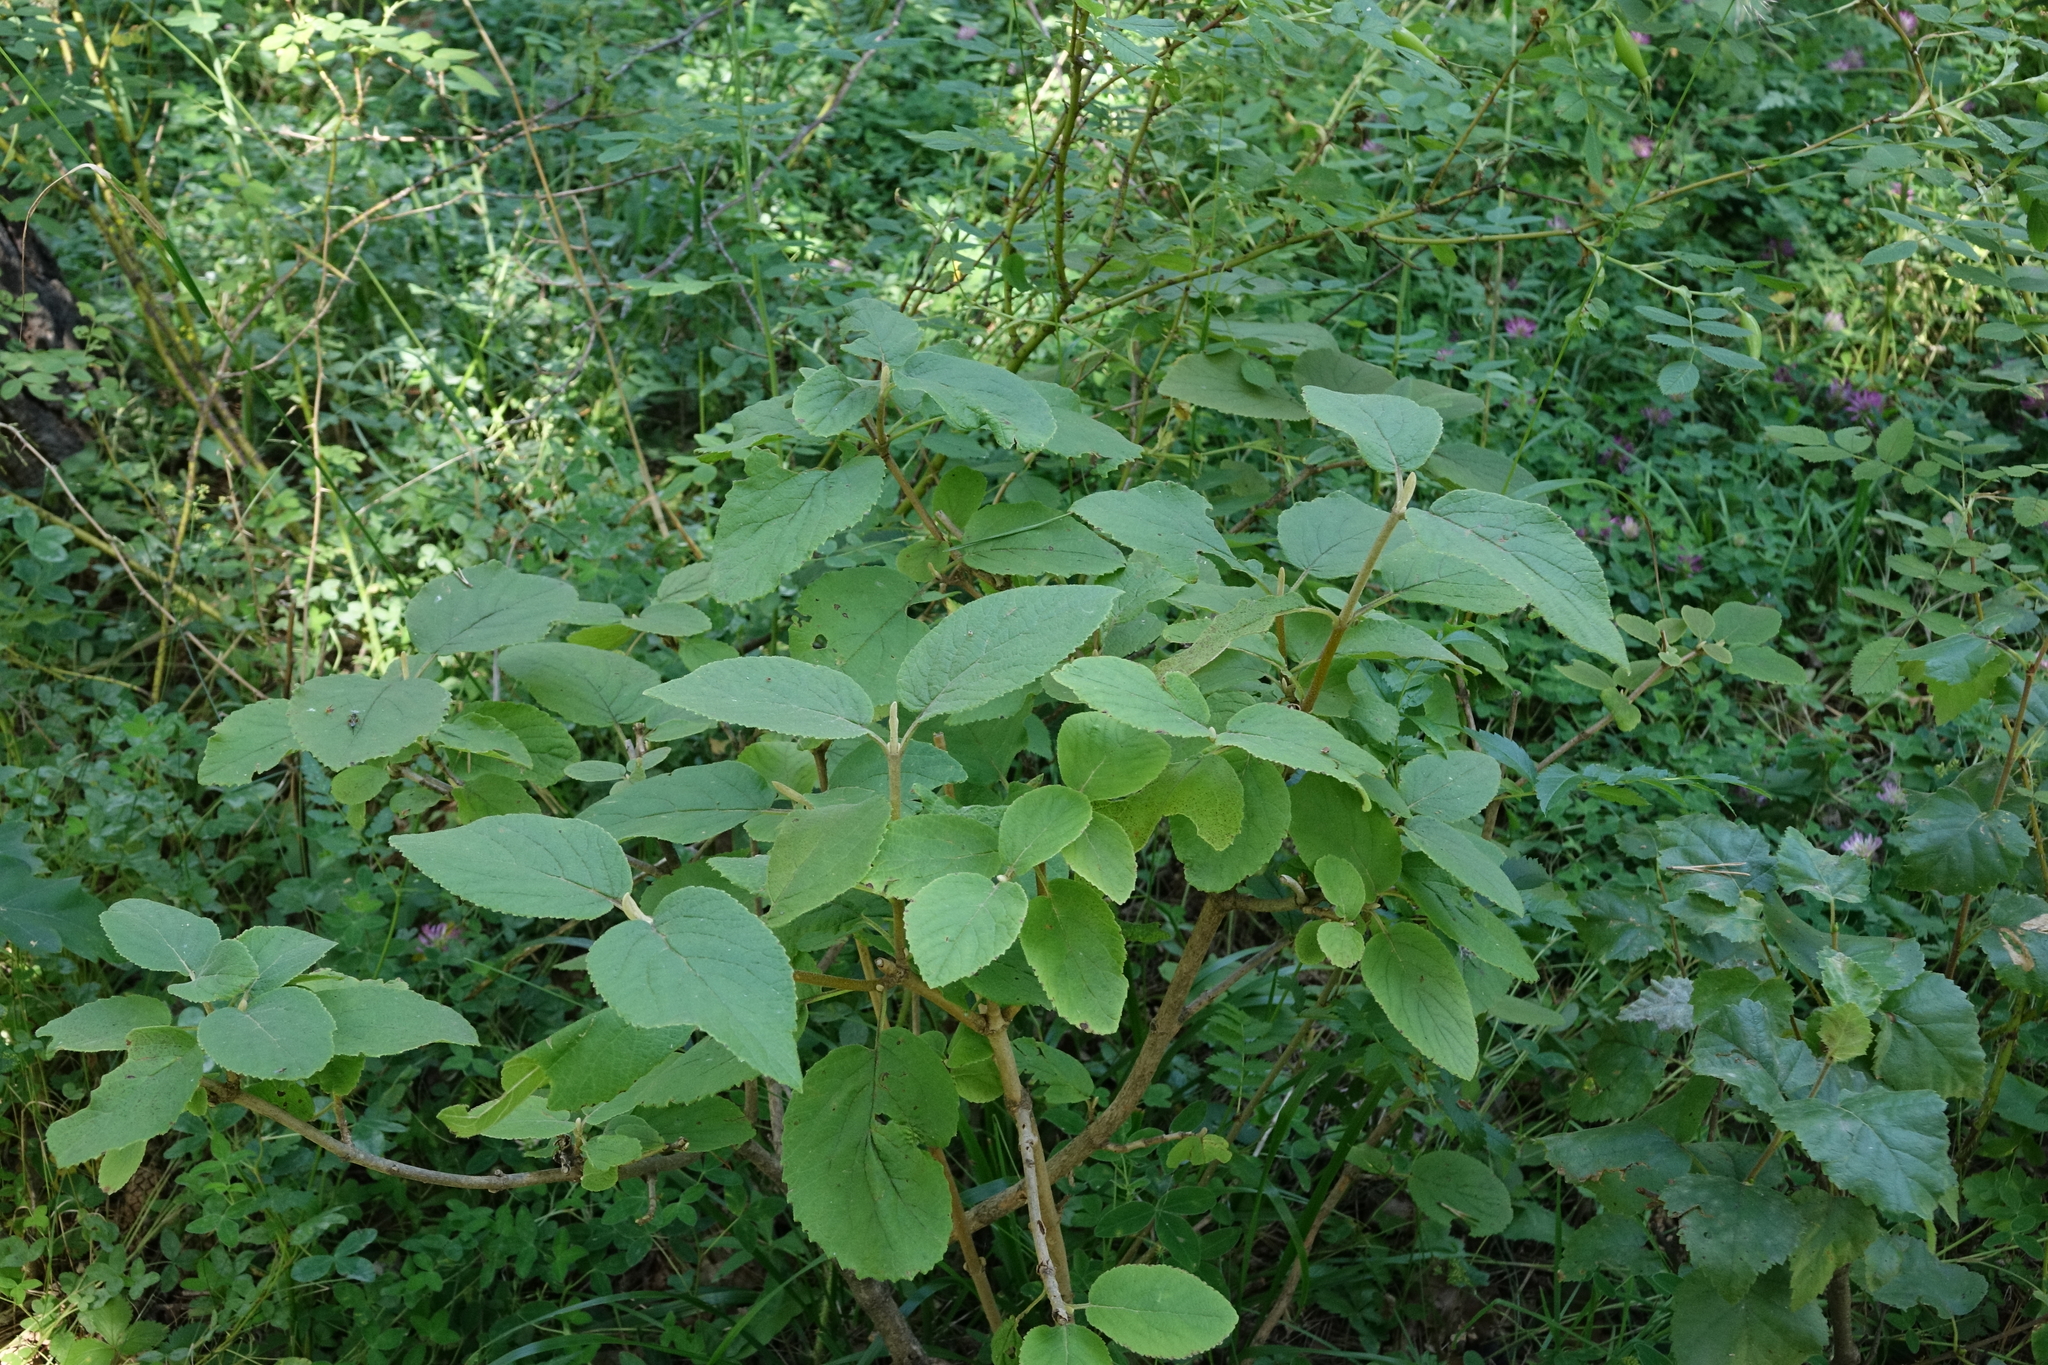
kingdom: Plantae
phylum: Tracheophyta
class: Magnoliopsida
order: Dipsacales
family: Viburnaceae
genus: Viburnum
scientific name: Viburnum lantana
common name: Wayfaring tree
